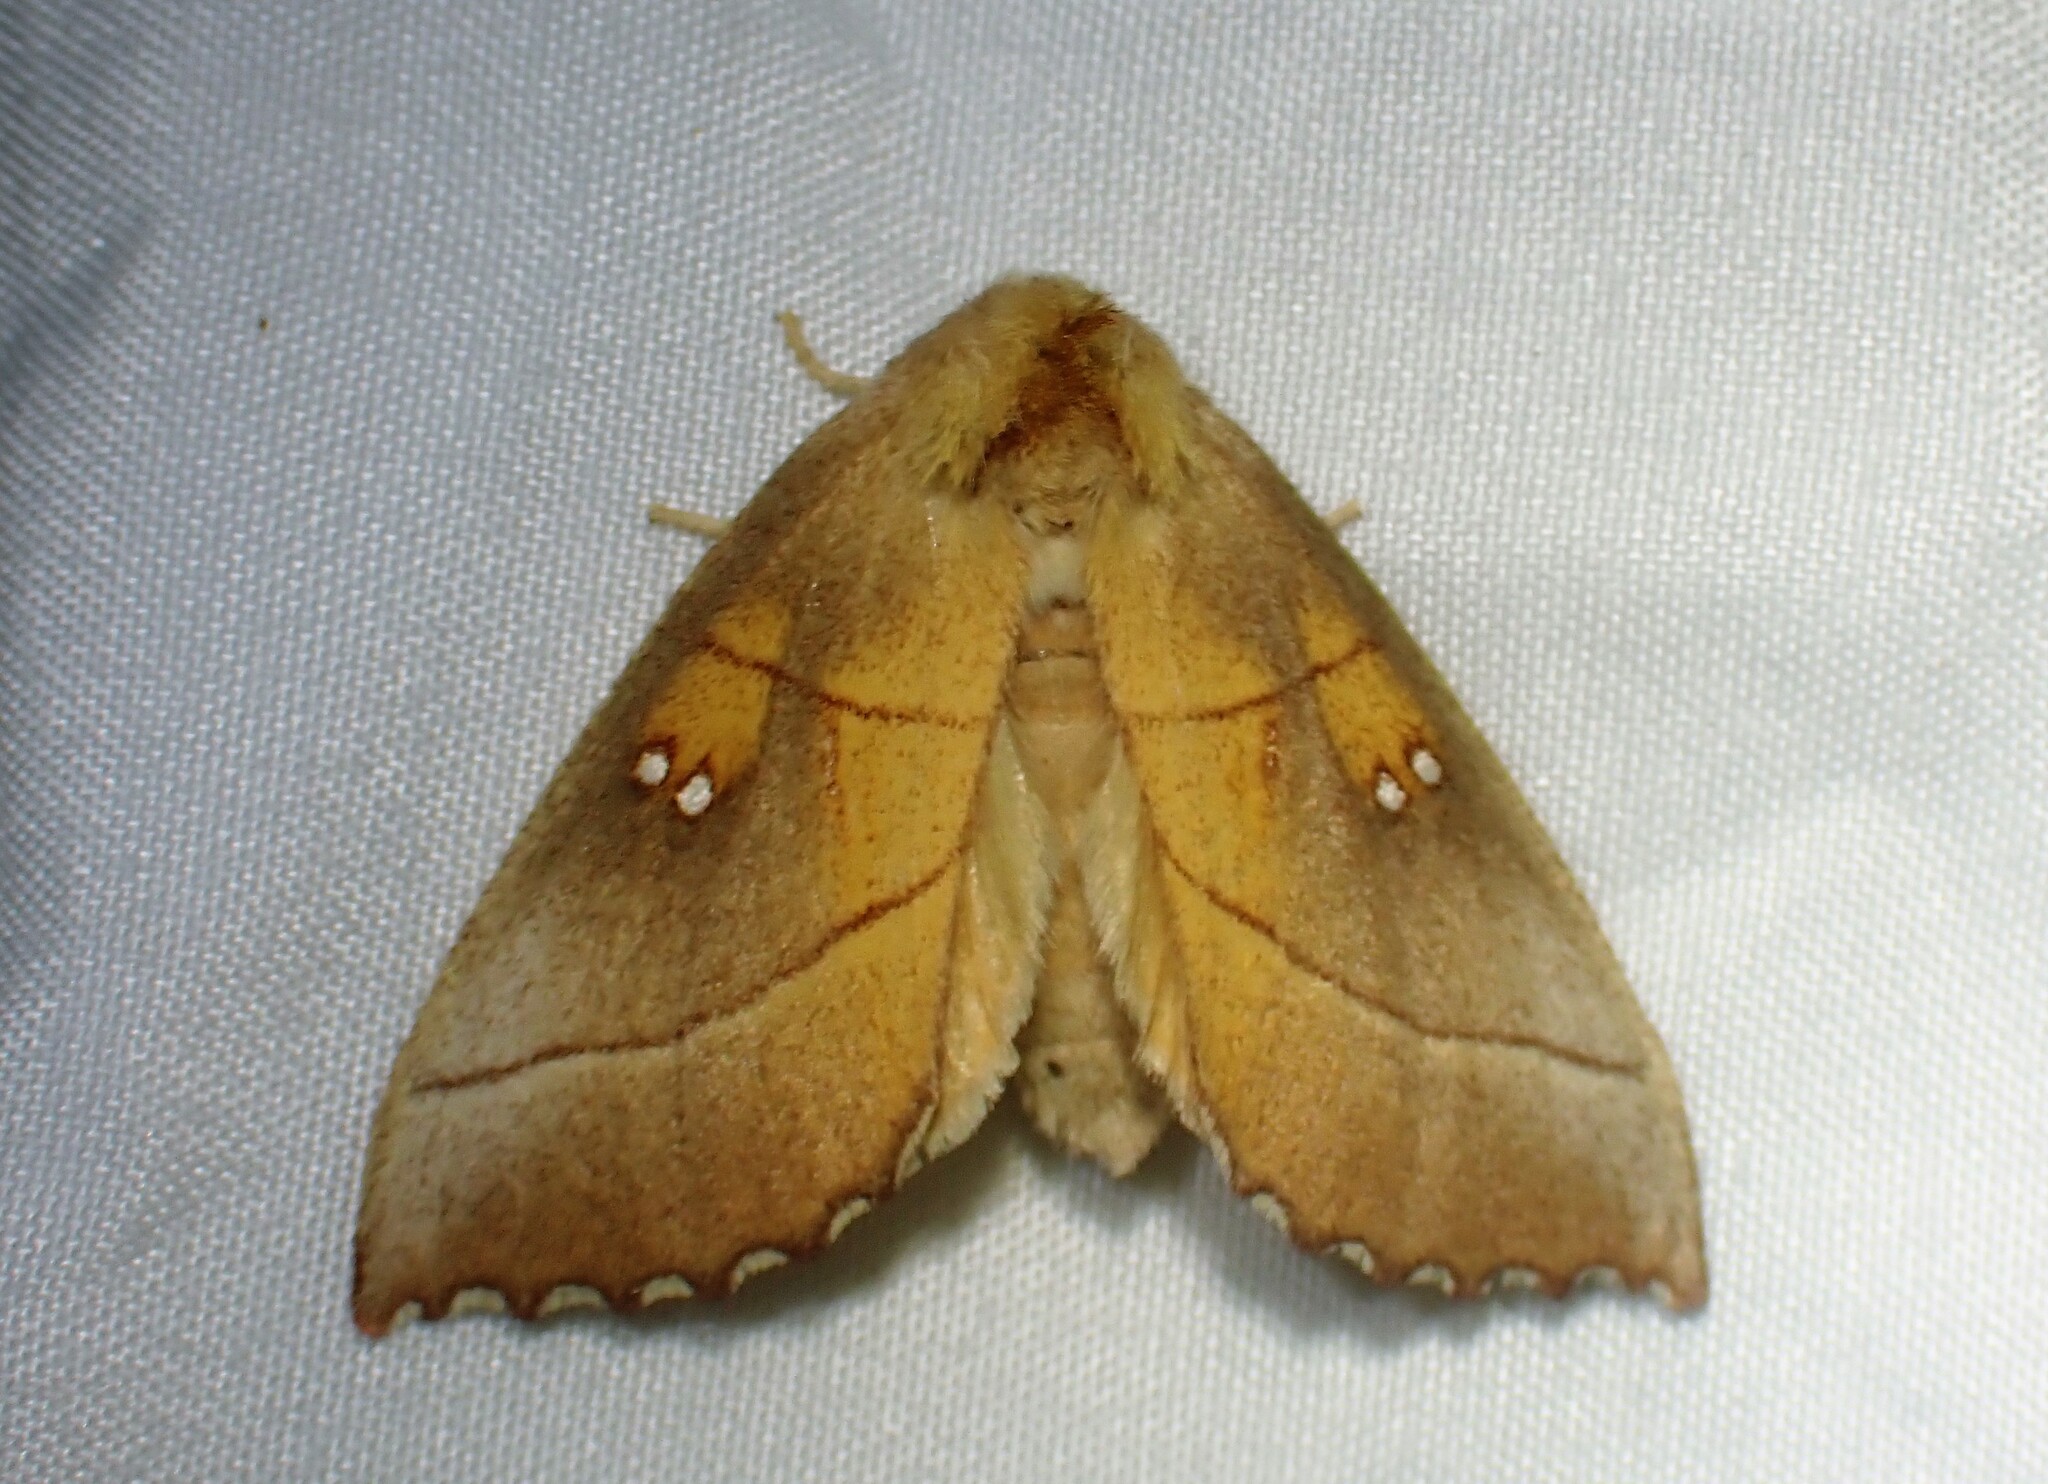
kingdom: Animalia
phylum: Arthropoda
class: Insecta
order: Lepidoptera
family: Notodontidae
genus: Nadata
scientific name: Nadata gibbosa
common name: White-dotted prominent
